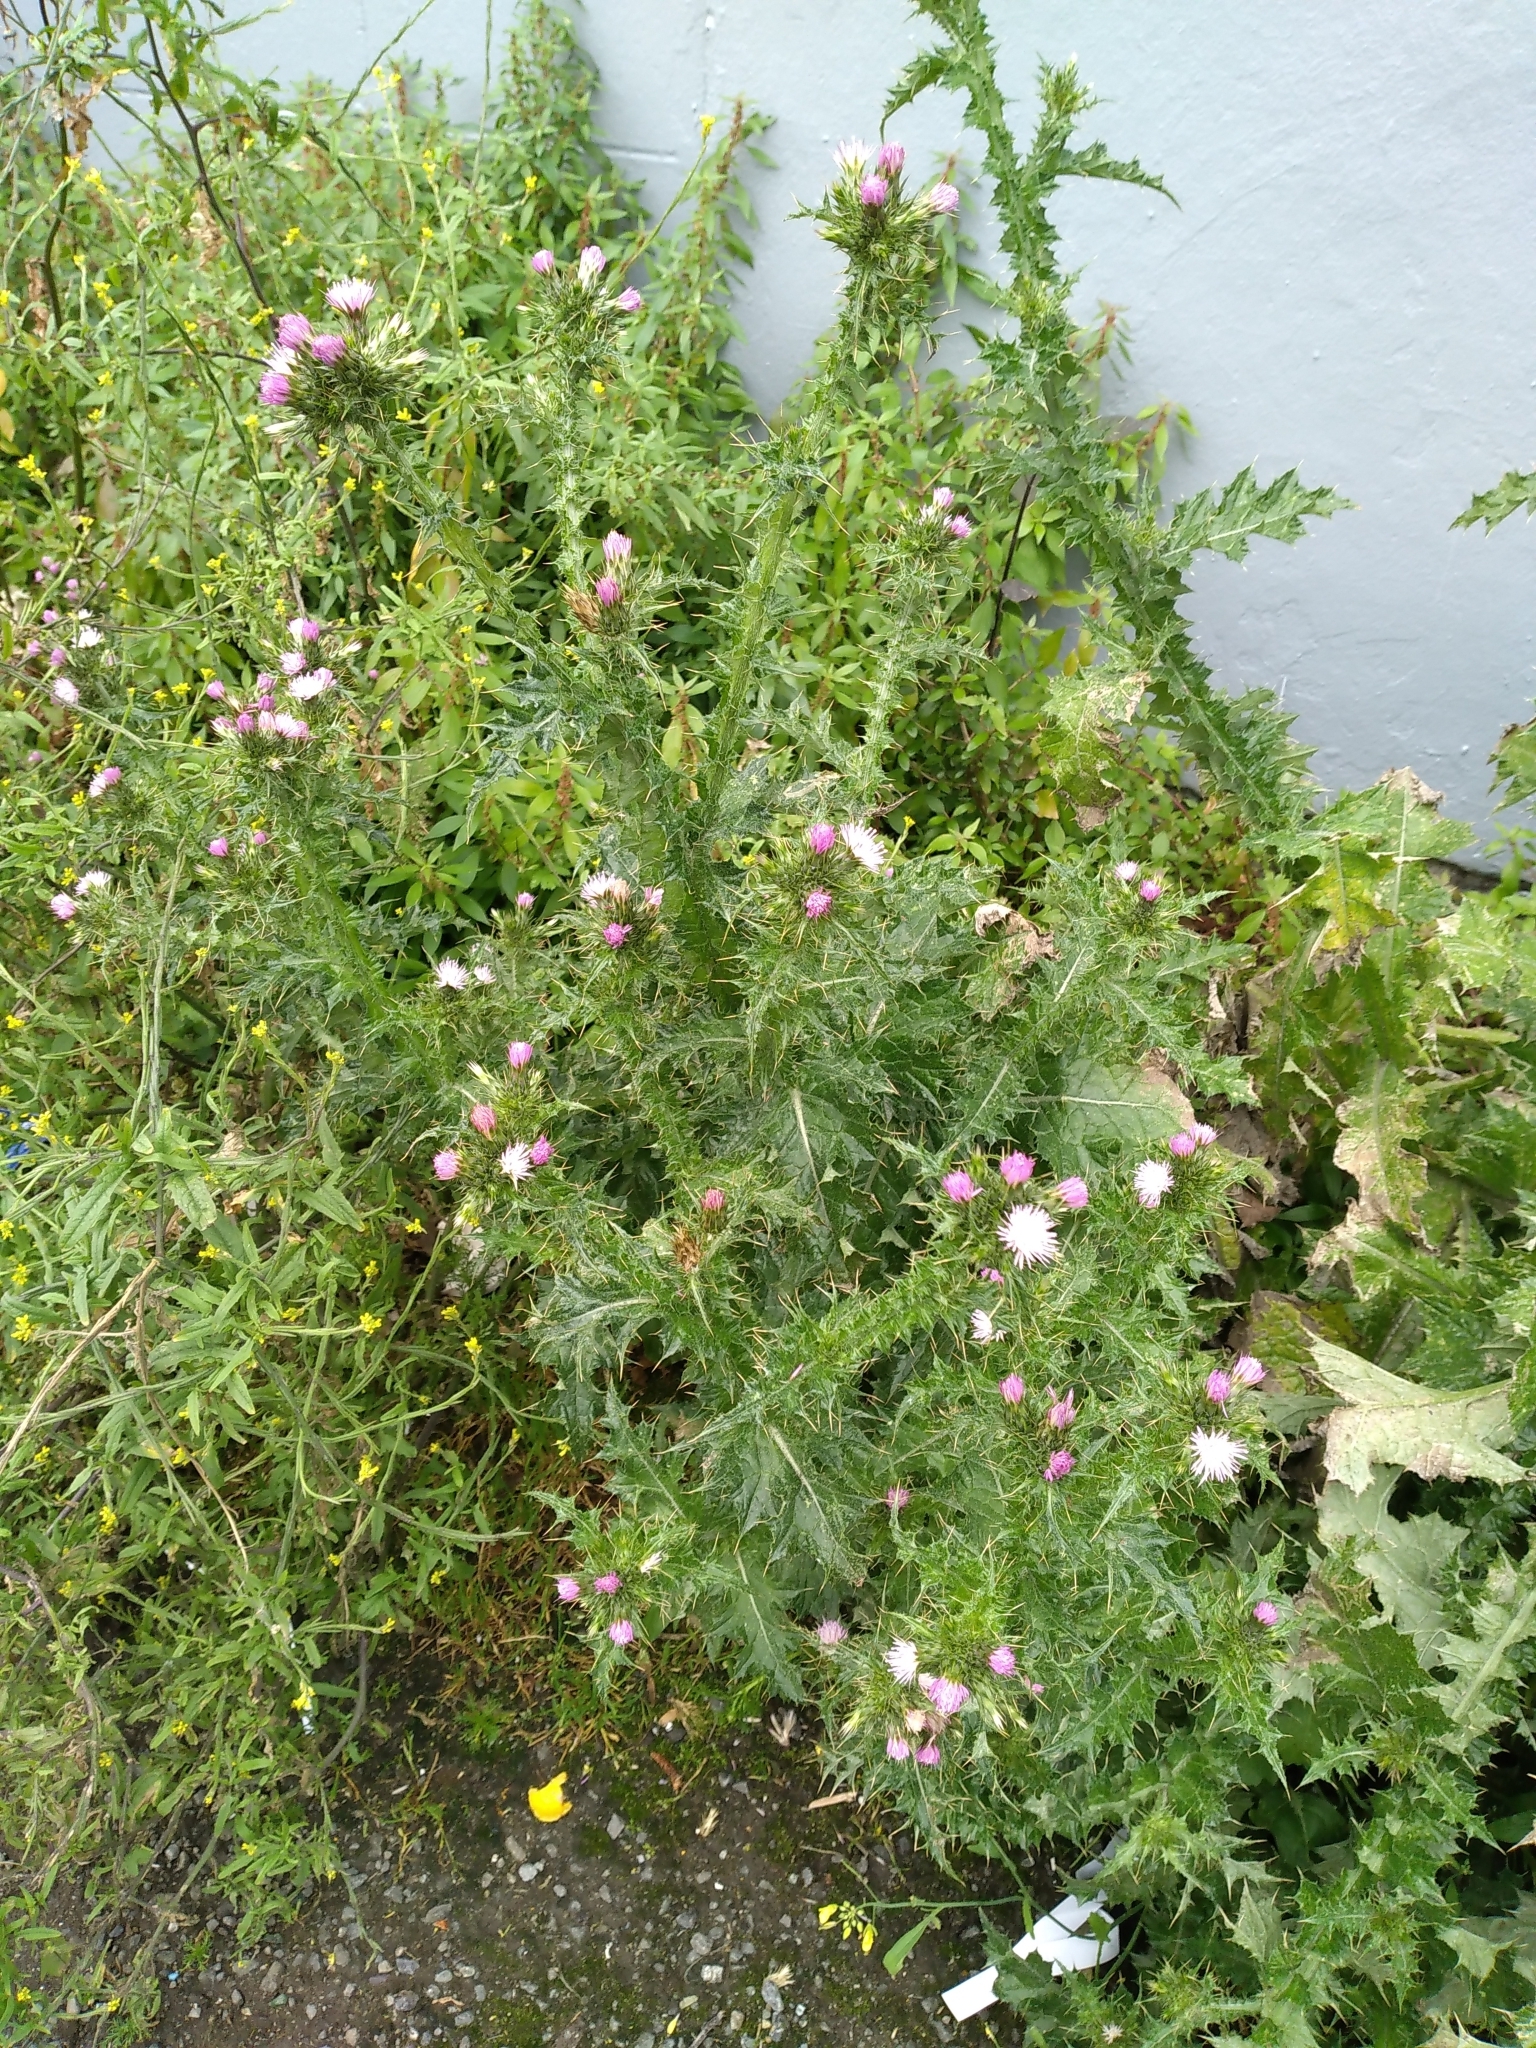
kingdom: Plantae
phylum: Tracheophyta
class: Magnoliopsida
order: Asterales
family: Asteraceae
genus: Carduus
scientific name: Carduus tenuiflorus
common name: Slender thistle
